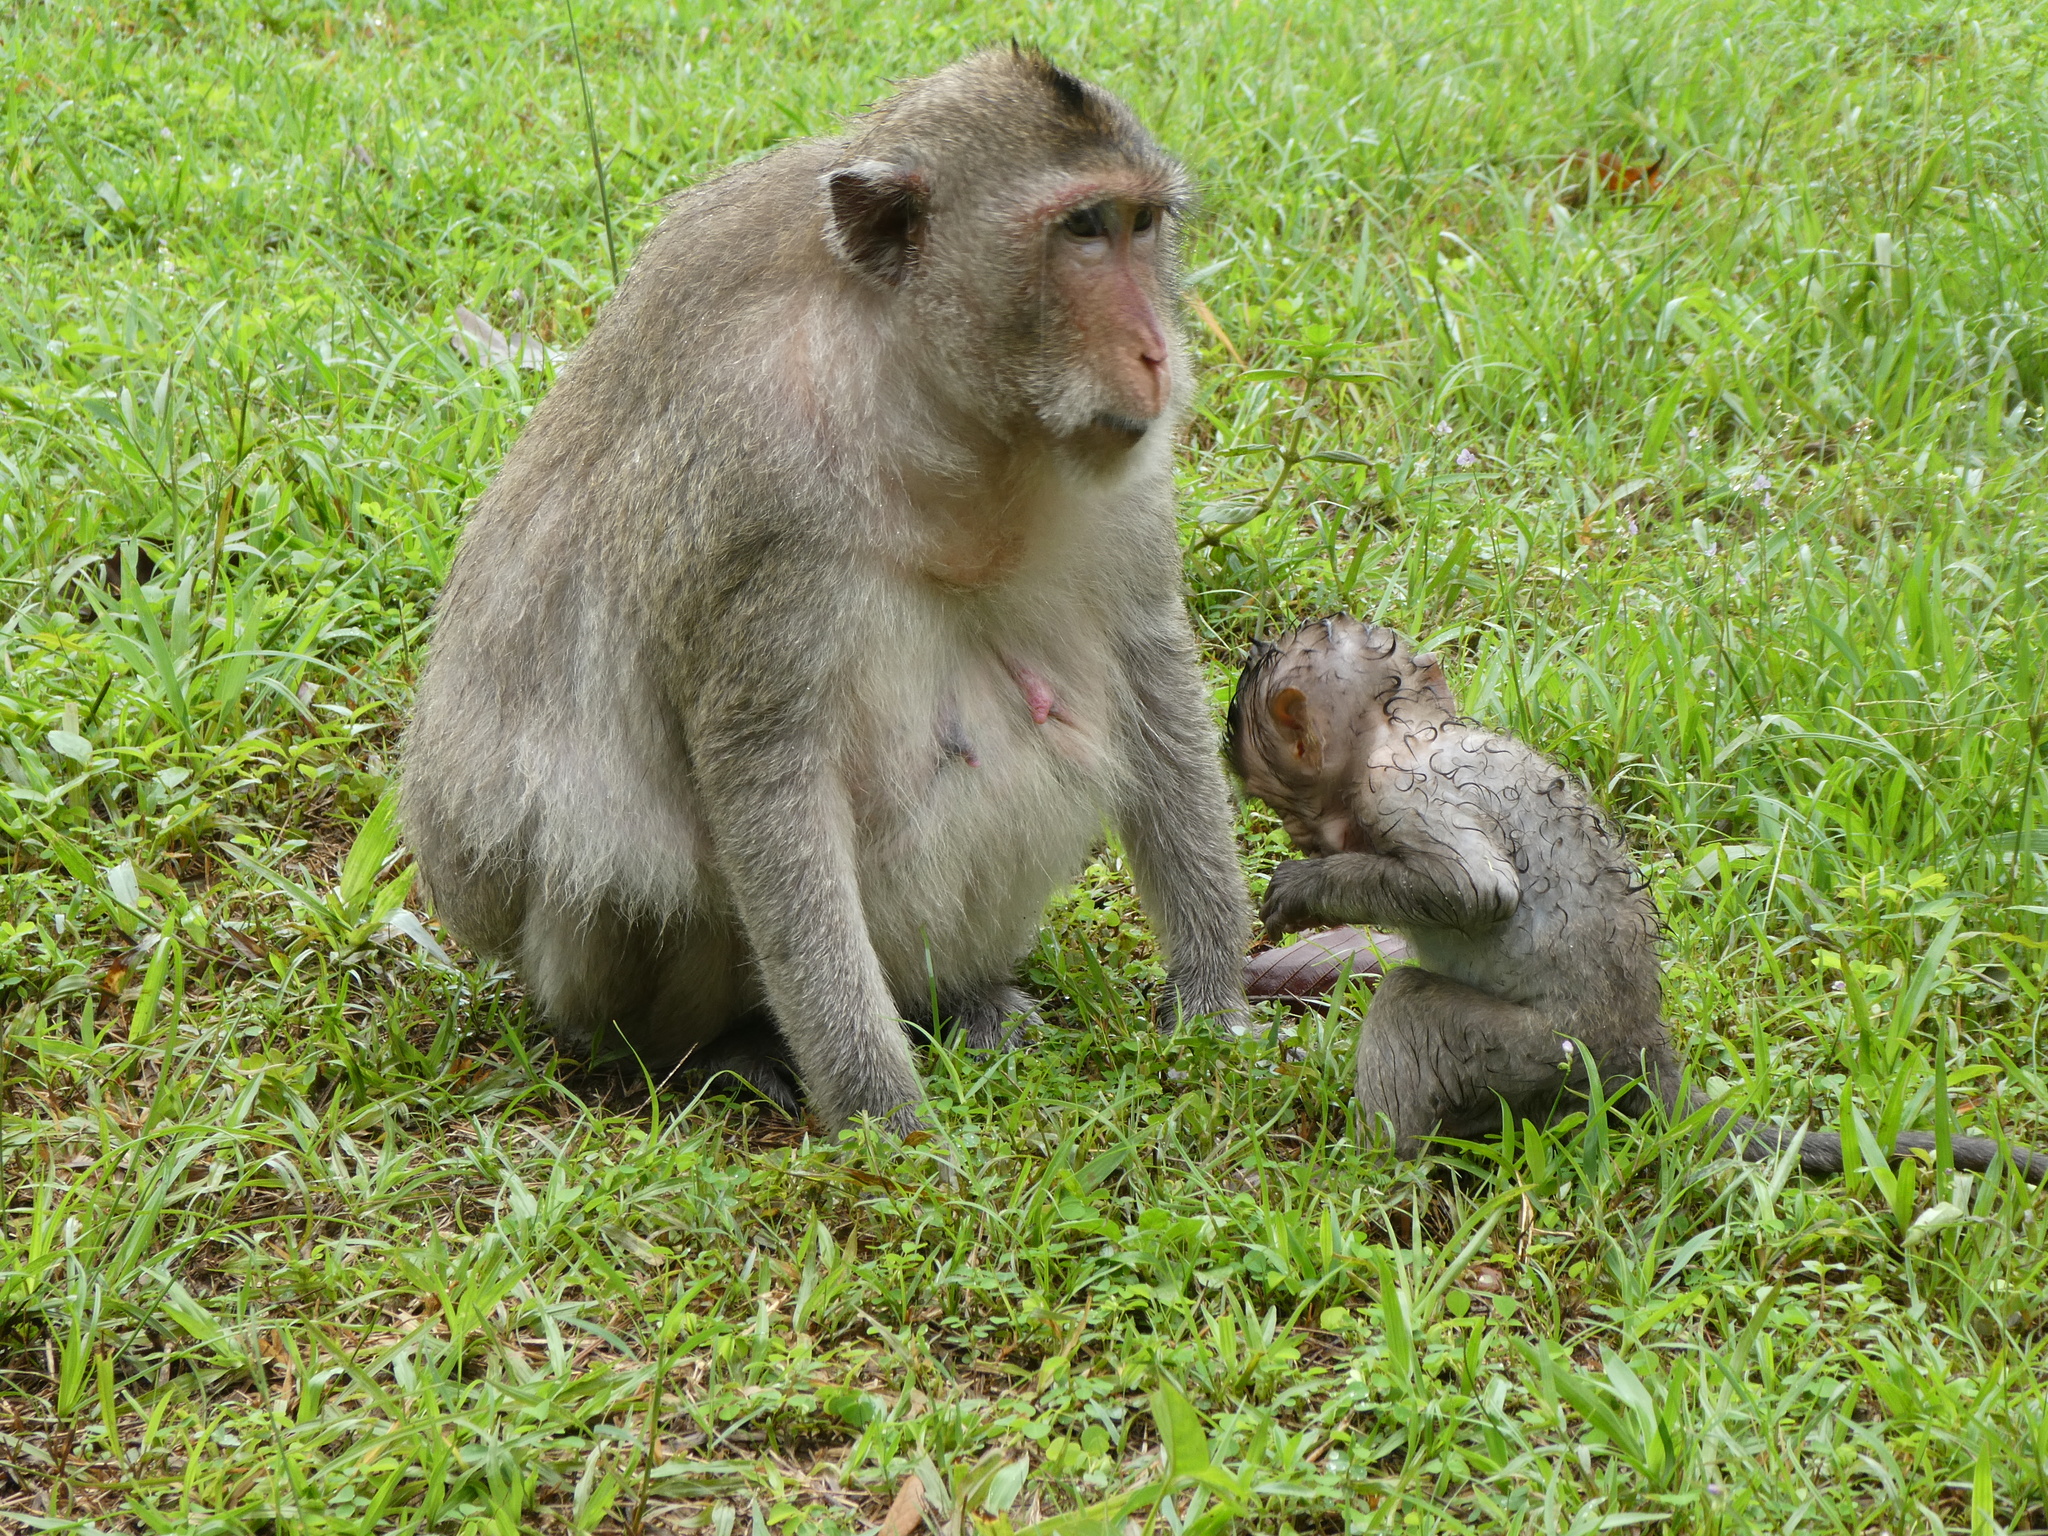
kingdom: Animalia
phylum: Chordata
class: Mammalia
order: Primates
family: Cercopithecidae
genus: Macaca
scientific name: Macaca fascicularis
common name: Crab-eating macaque
